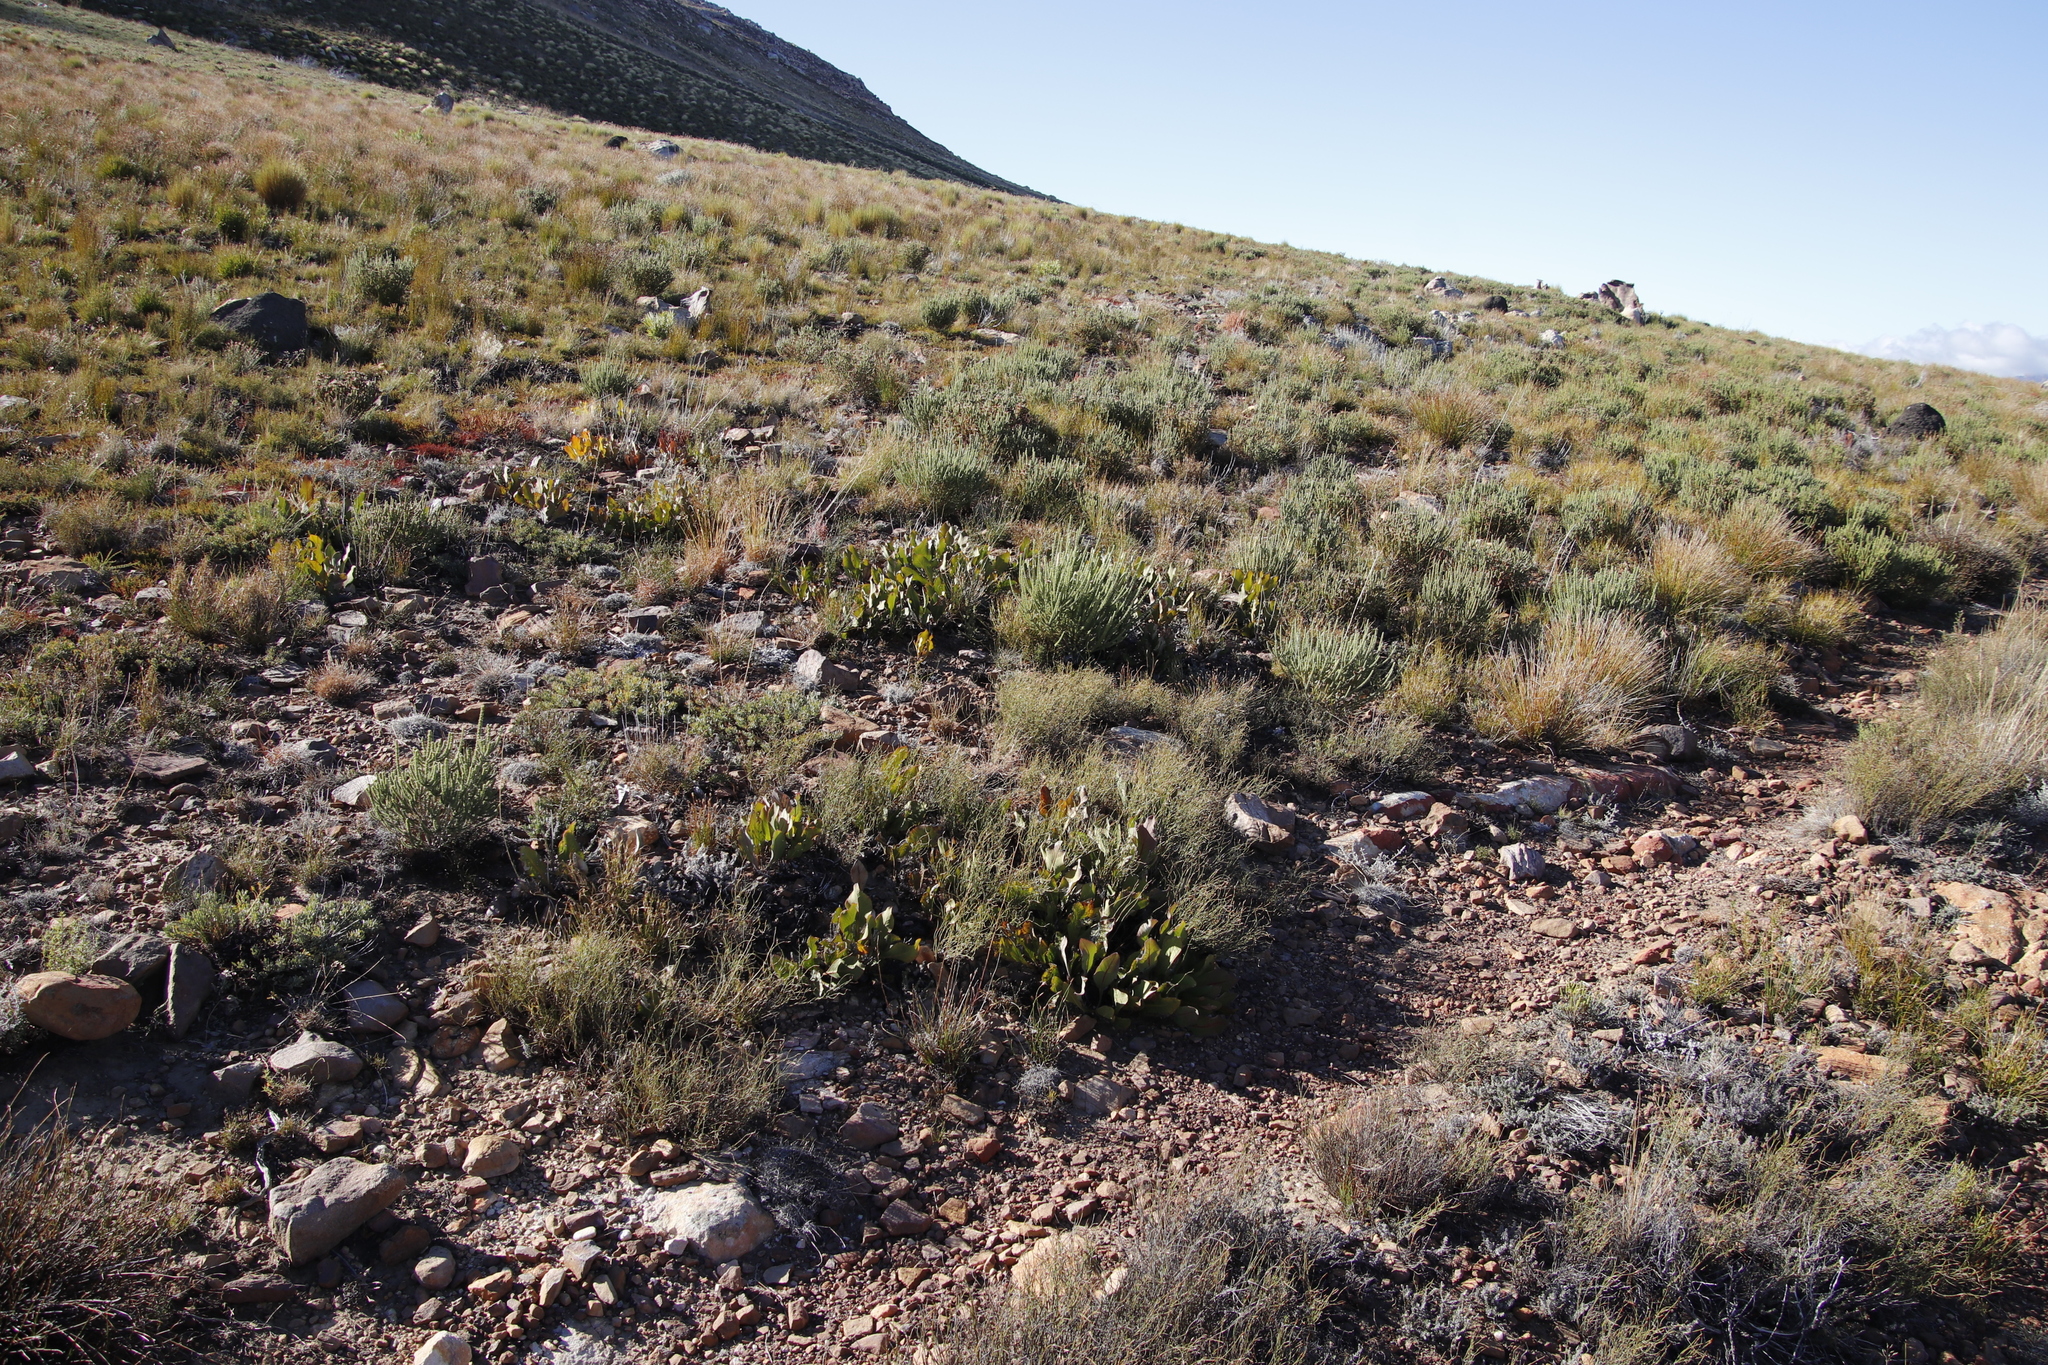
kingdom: Plantae
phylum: Tracheophyta
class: Magnoliopsida
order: Proteales
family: Proteaceae
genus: Protea
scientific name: Protea scolopendriifolia
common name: Harts-tongue-fern sugarbush
